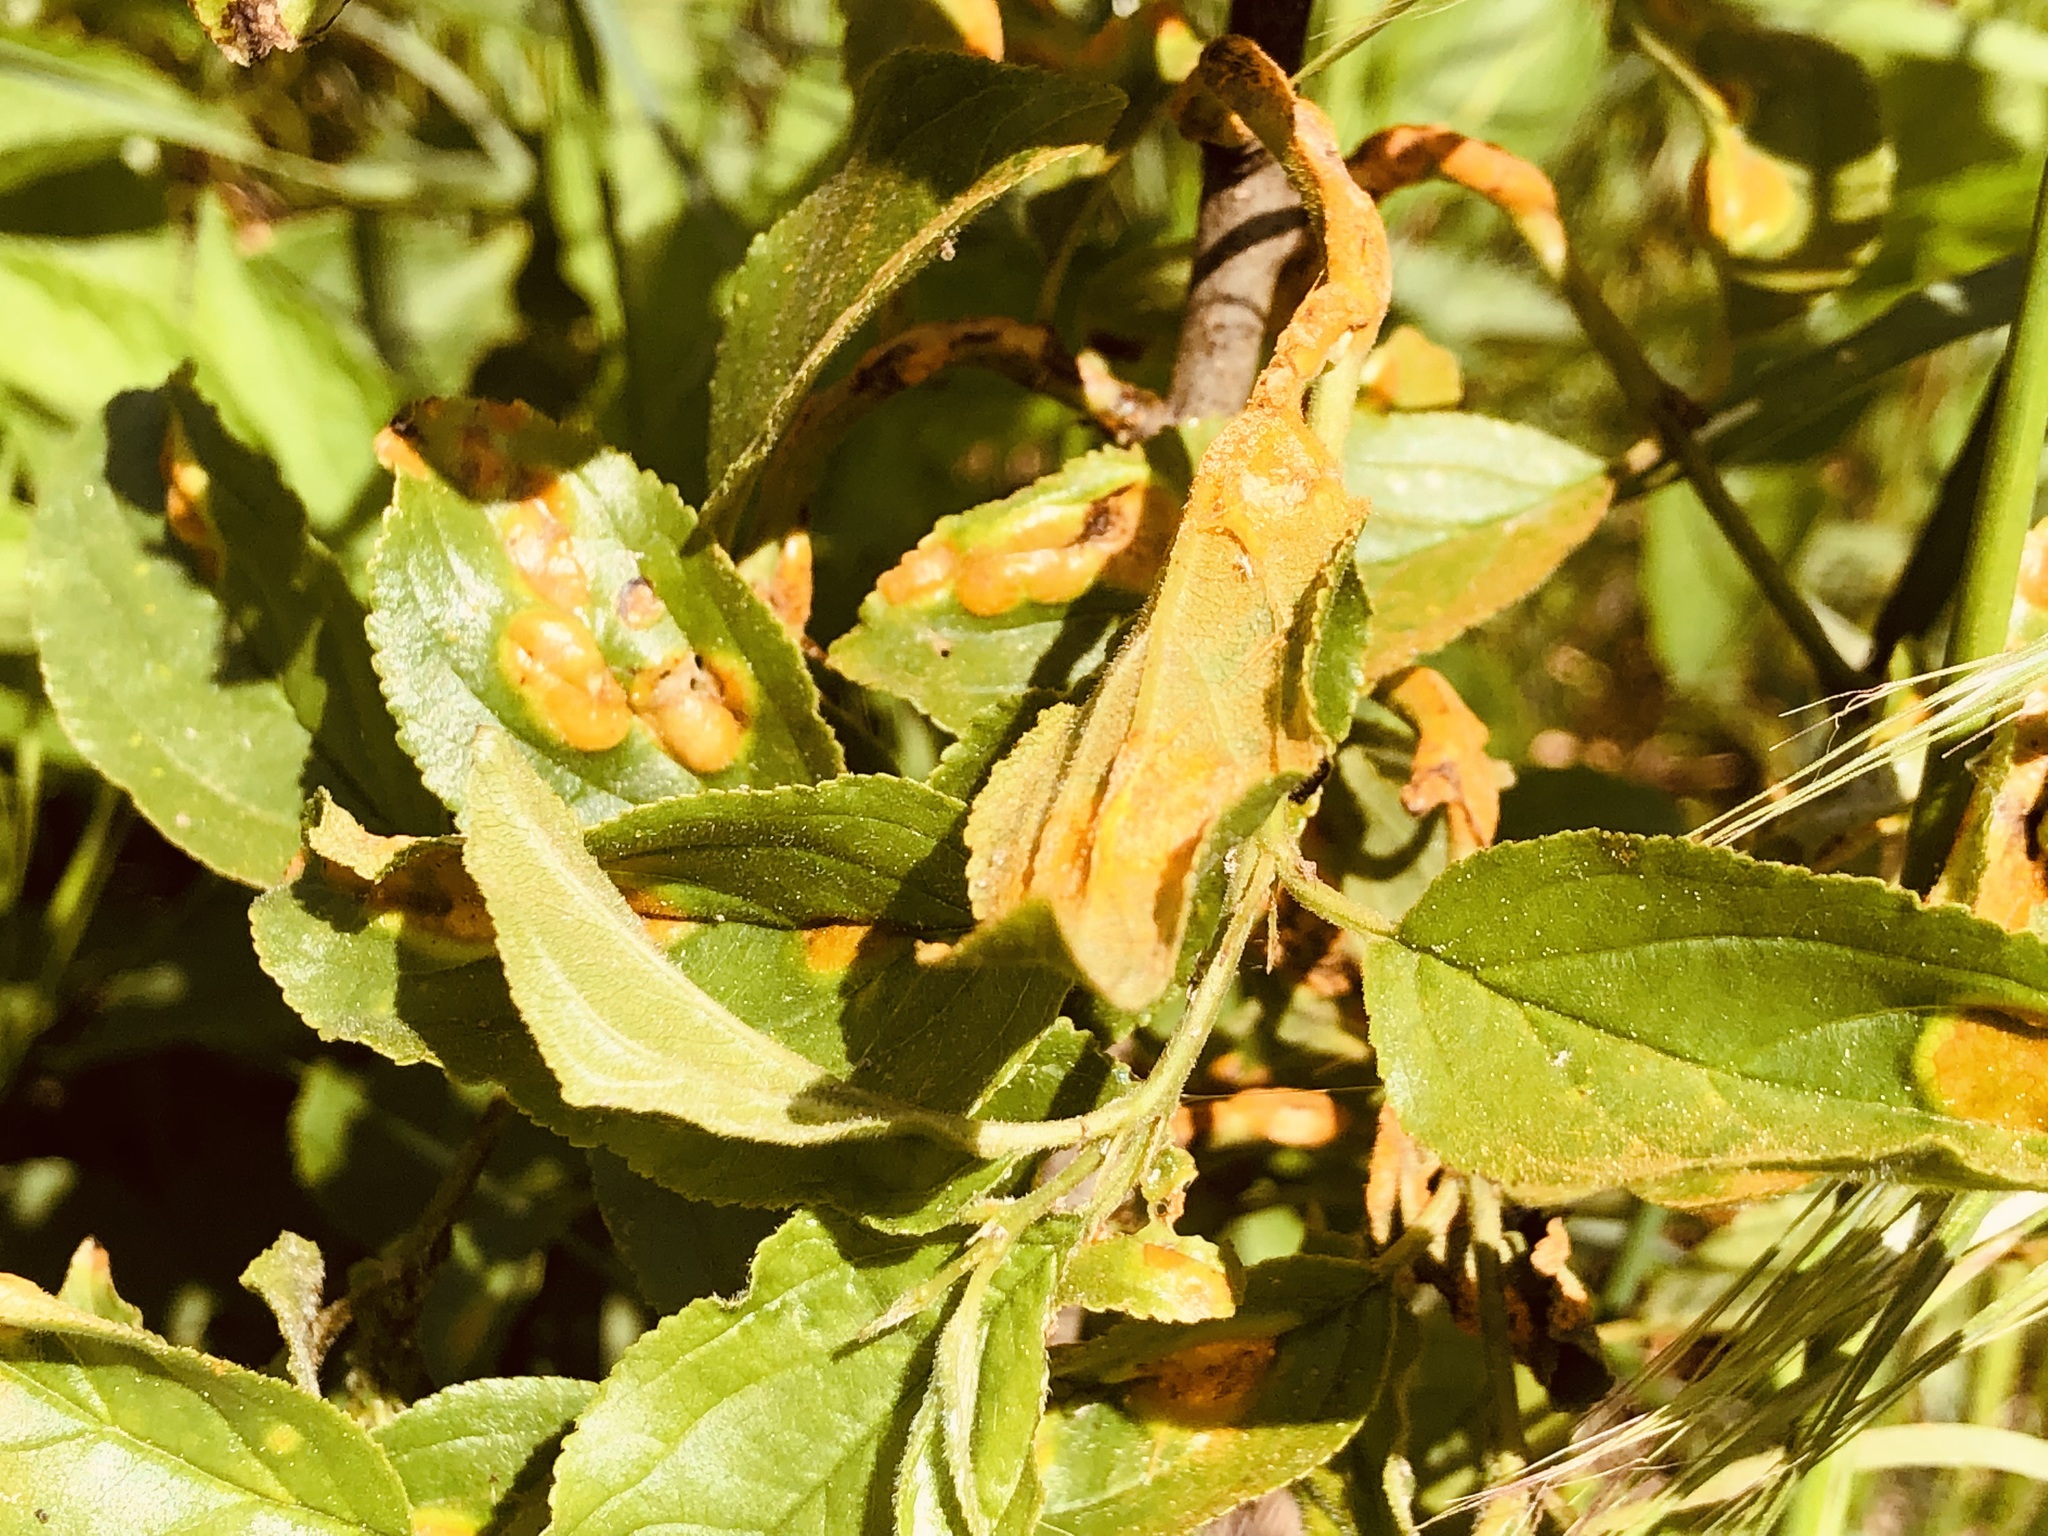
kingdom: Fungi
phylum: Basidiomycota
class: Pucciniomycetes
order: Pucciniales
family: Pucciniaceae
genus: Puccinia
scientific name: Puccinia coronata
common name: Crown rust
